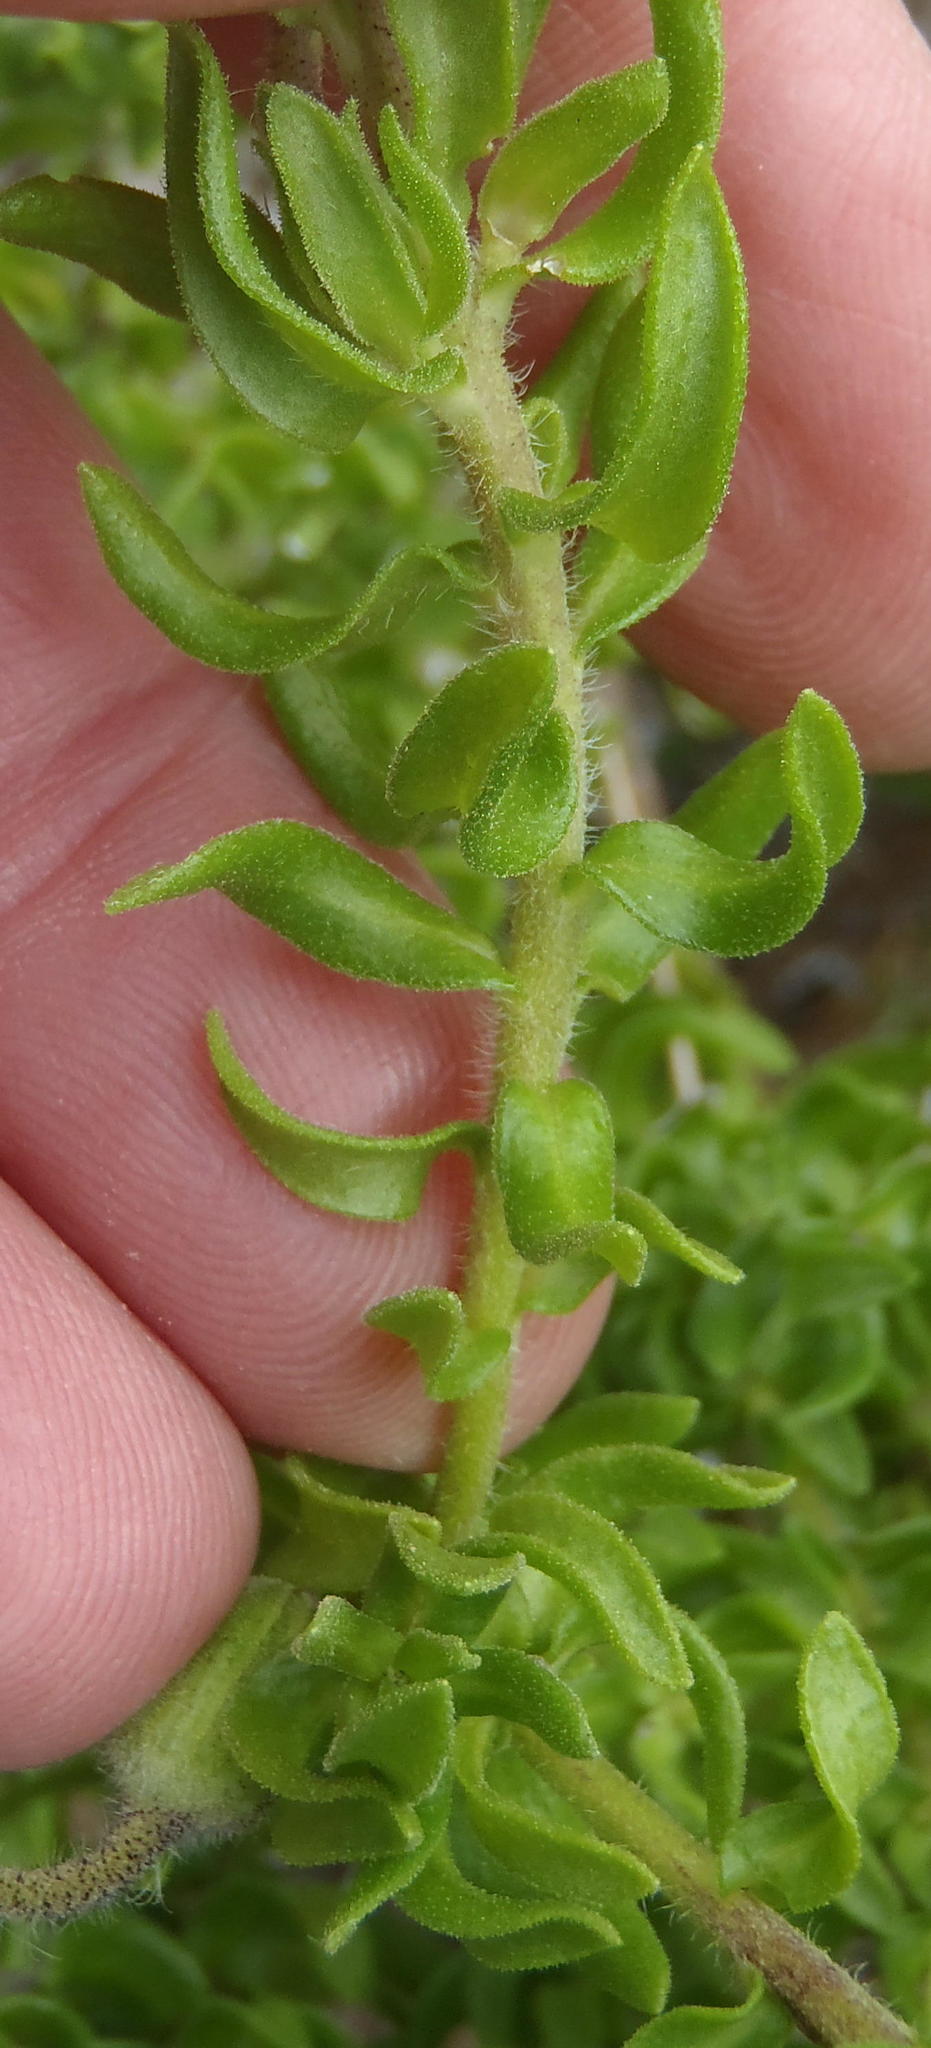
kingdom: Plantae
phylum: Tracheophyta
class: Magnoliopsida
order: Asterales
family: Asteraceae
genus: Felicia
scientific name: Felicia aethiopica
